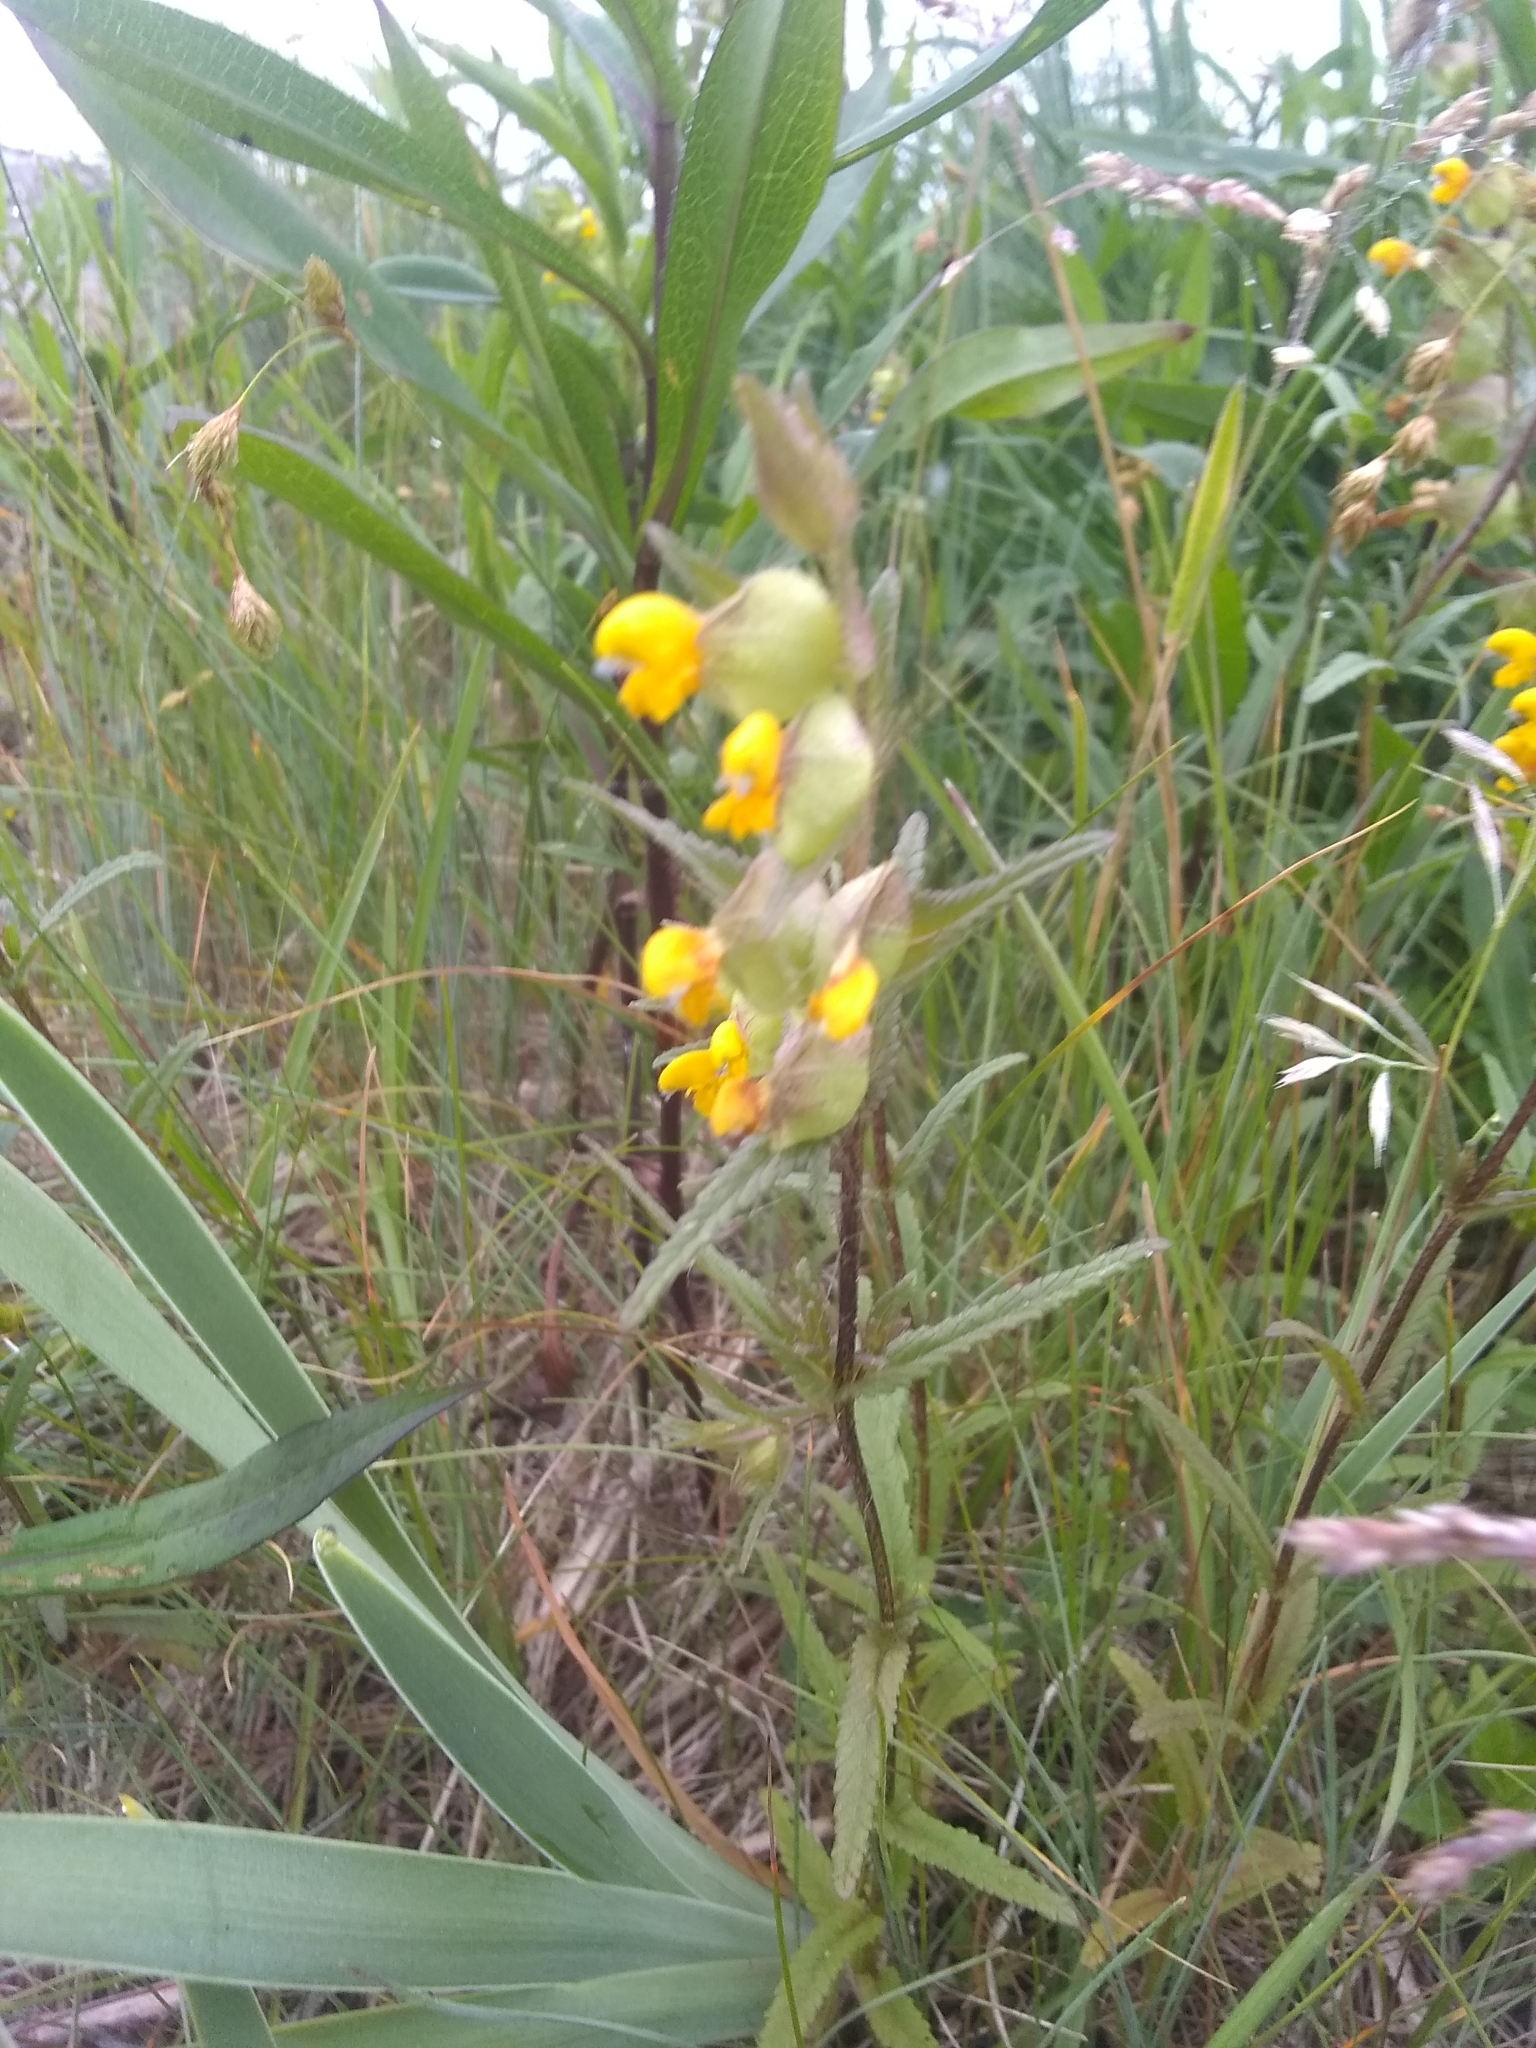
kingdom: Plantae
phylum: Tracheophyta
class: Magnoliopsida
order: Lamiales
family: Orobanchaceae
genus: Rhinanthus
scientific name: Rhinanthus minor
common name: Yellow-rattle
